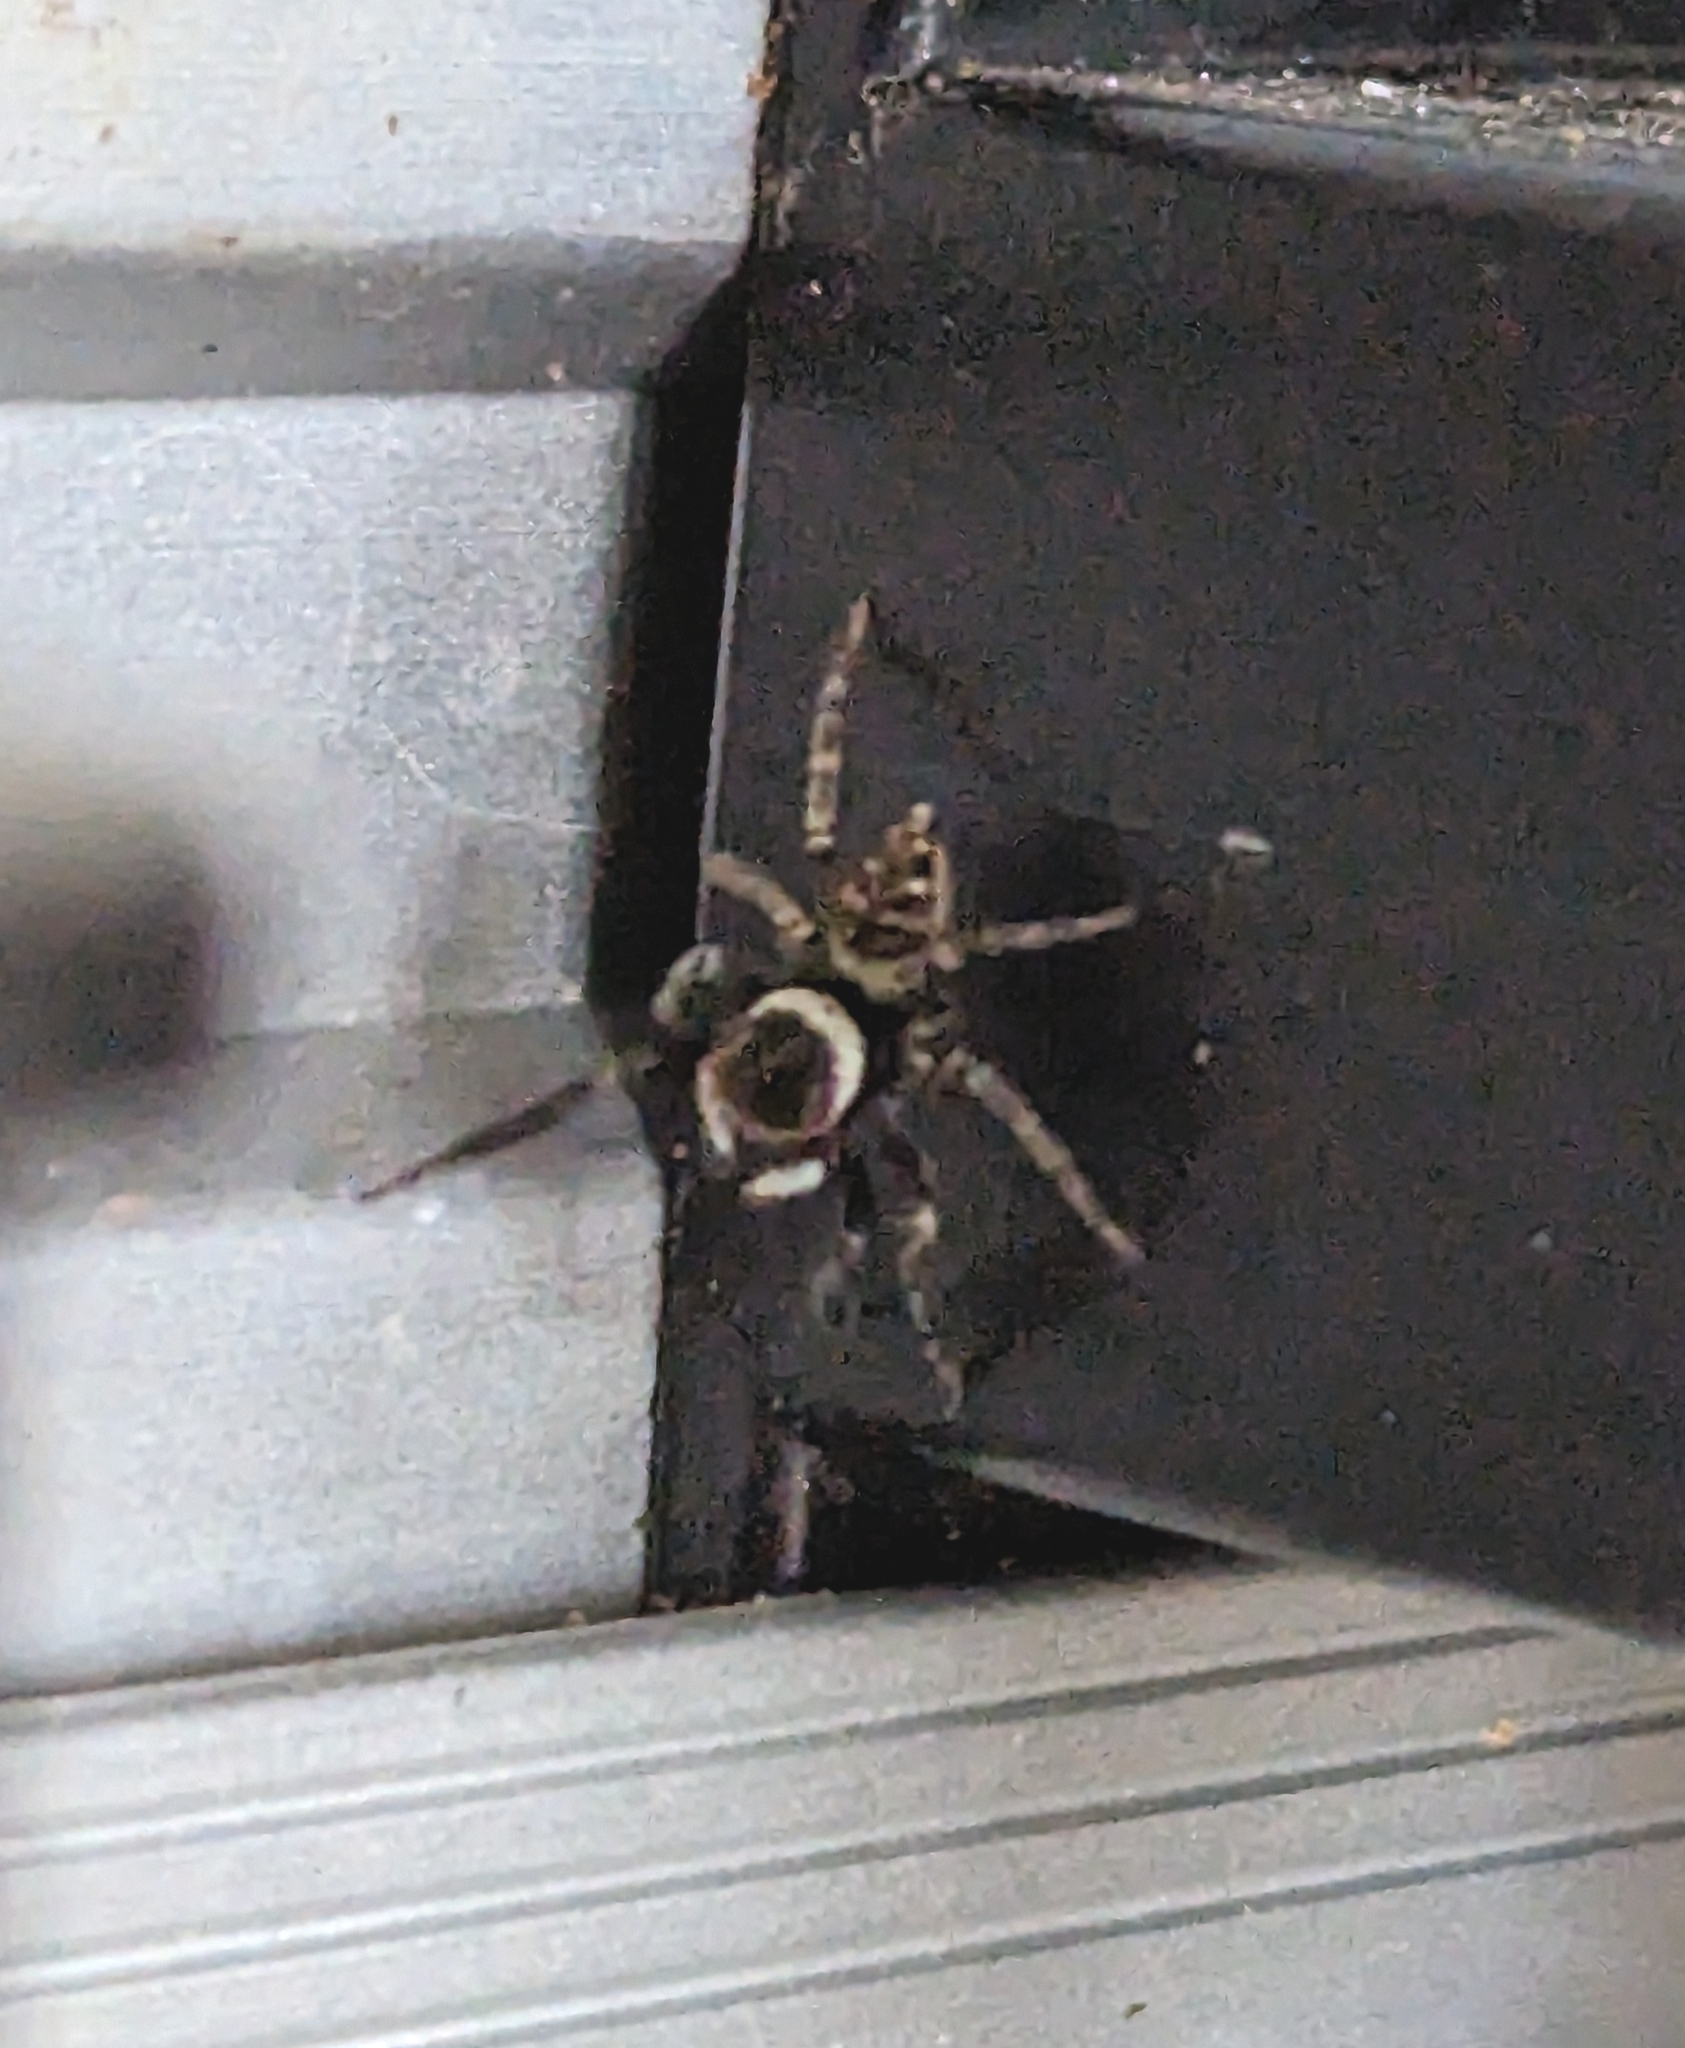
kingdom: Animalia
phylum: Arthropoda
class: Arachnida
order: Araneae
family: Salticidae
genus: Hasarius
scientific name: Hasarius adansoni
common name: Jumping spider
